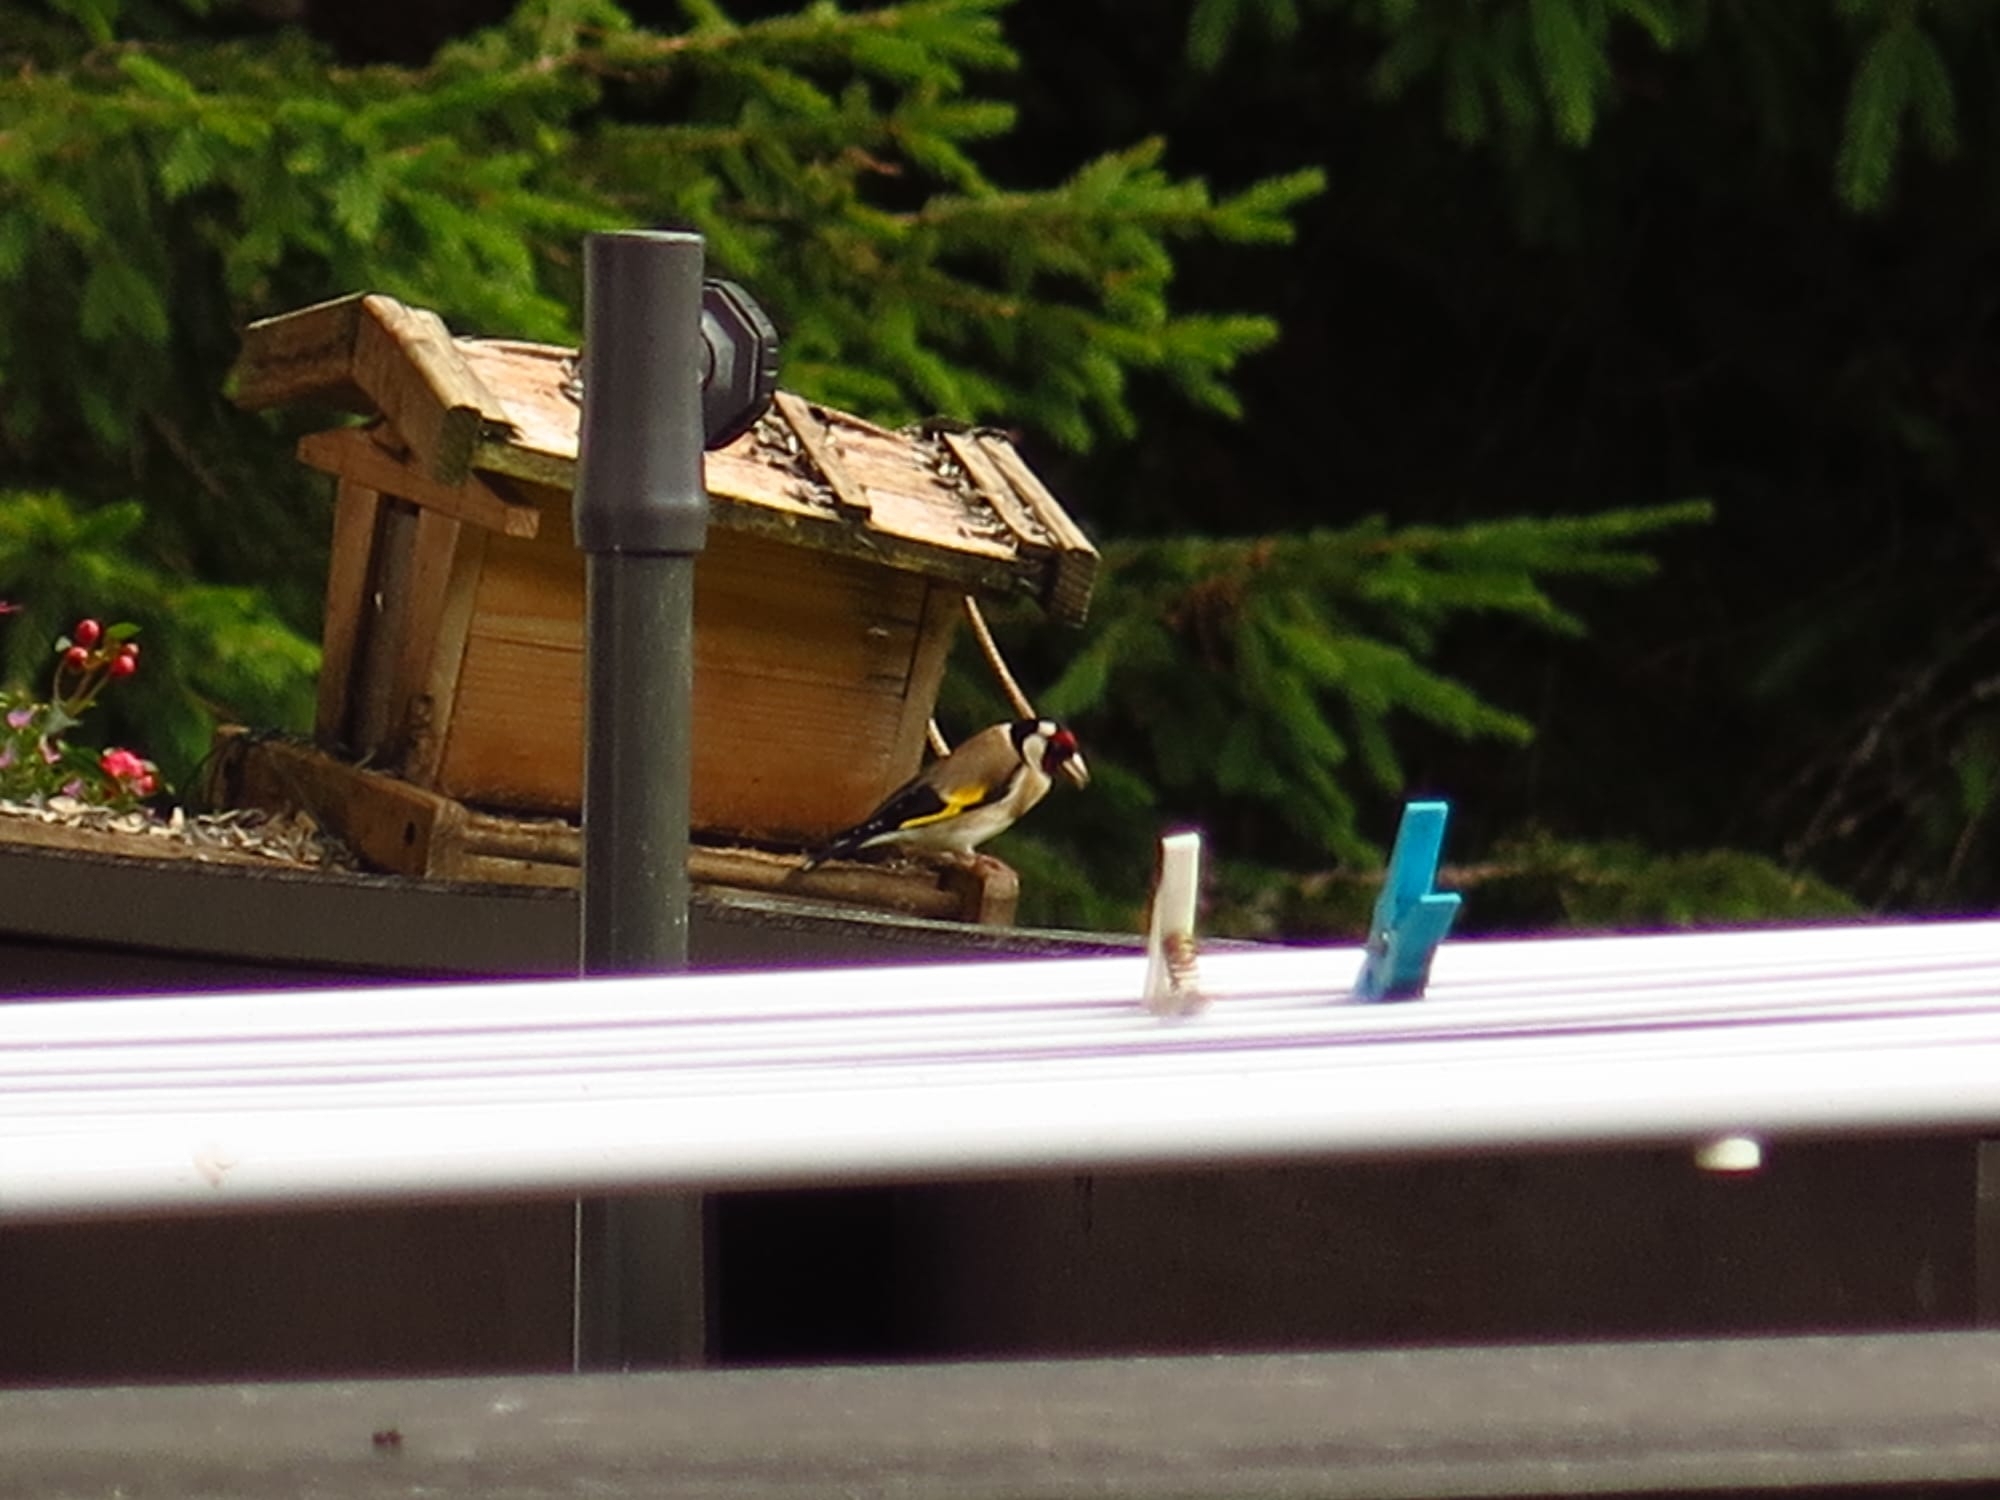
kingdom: Animalia
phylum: Chordata
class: Aves
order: Passeriformes
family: Fringillidae
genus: Carduelis
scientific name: Carduelis carduelis
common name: European goldfinch
